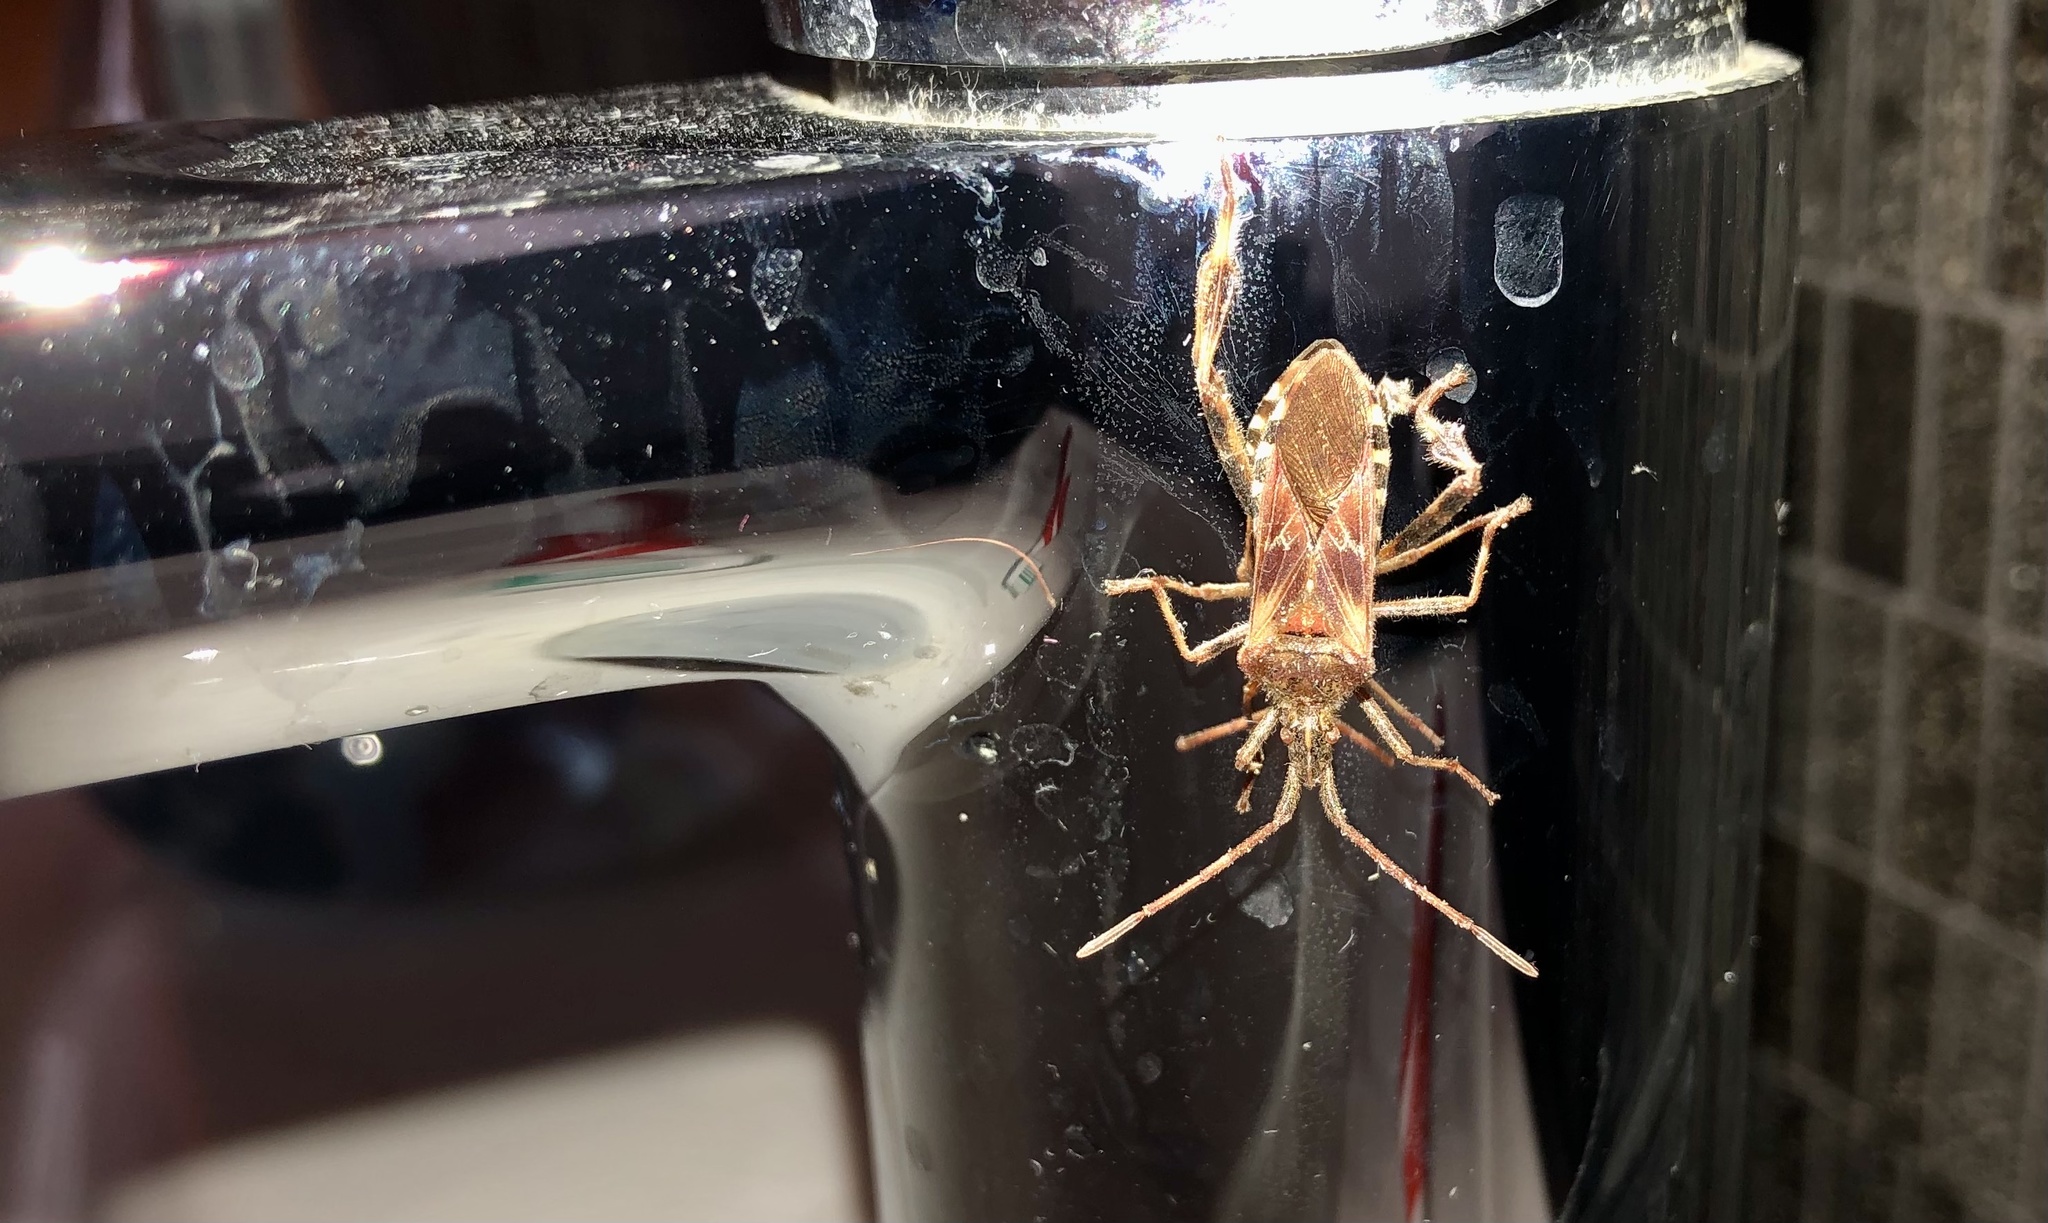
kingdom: Animalia
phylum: Arthropoda
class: Insecta
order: Hemiptera
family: Coreidae
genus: Leptoglossus
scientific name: Leptoglossus occidentalis
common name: Western conifer-seed bug
